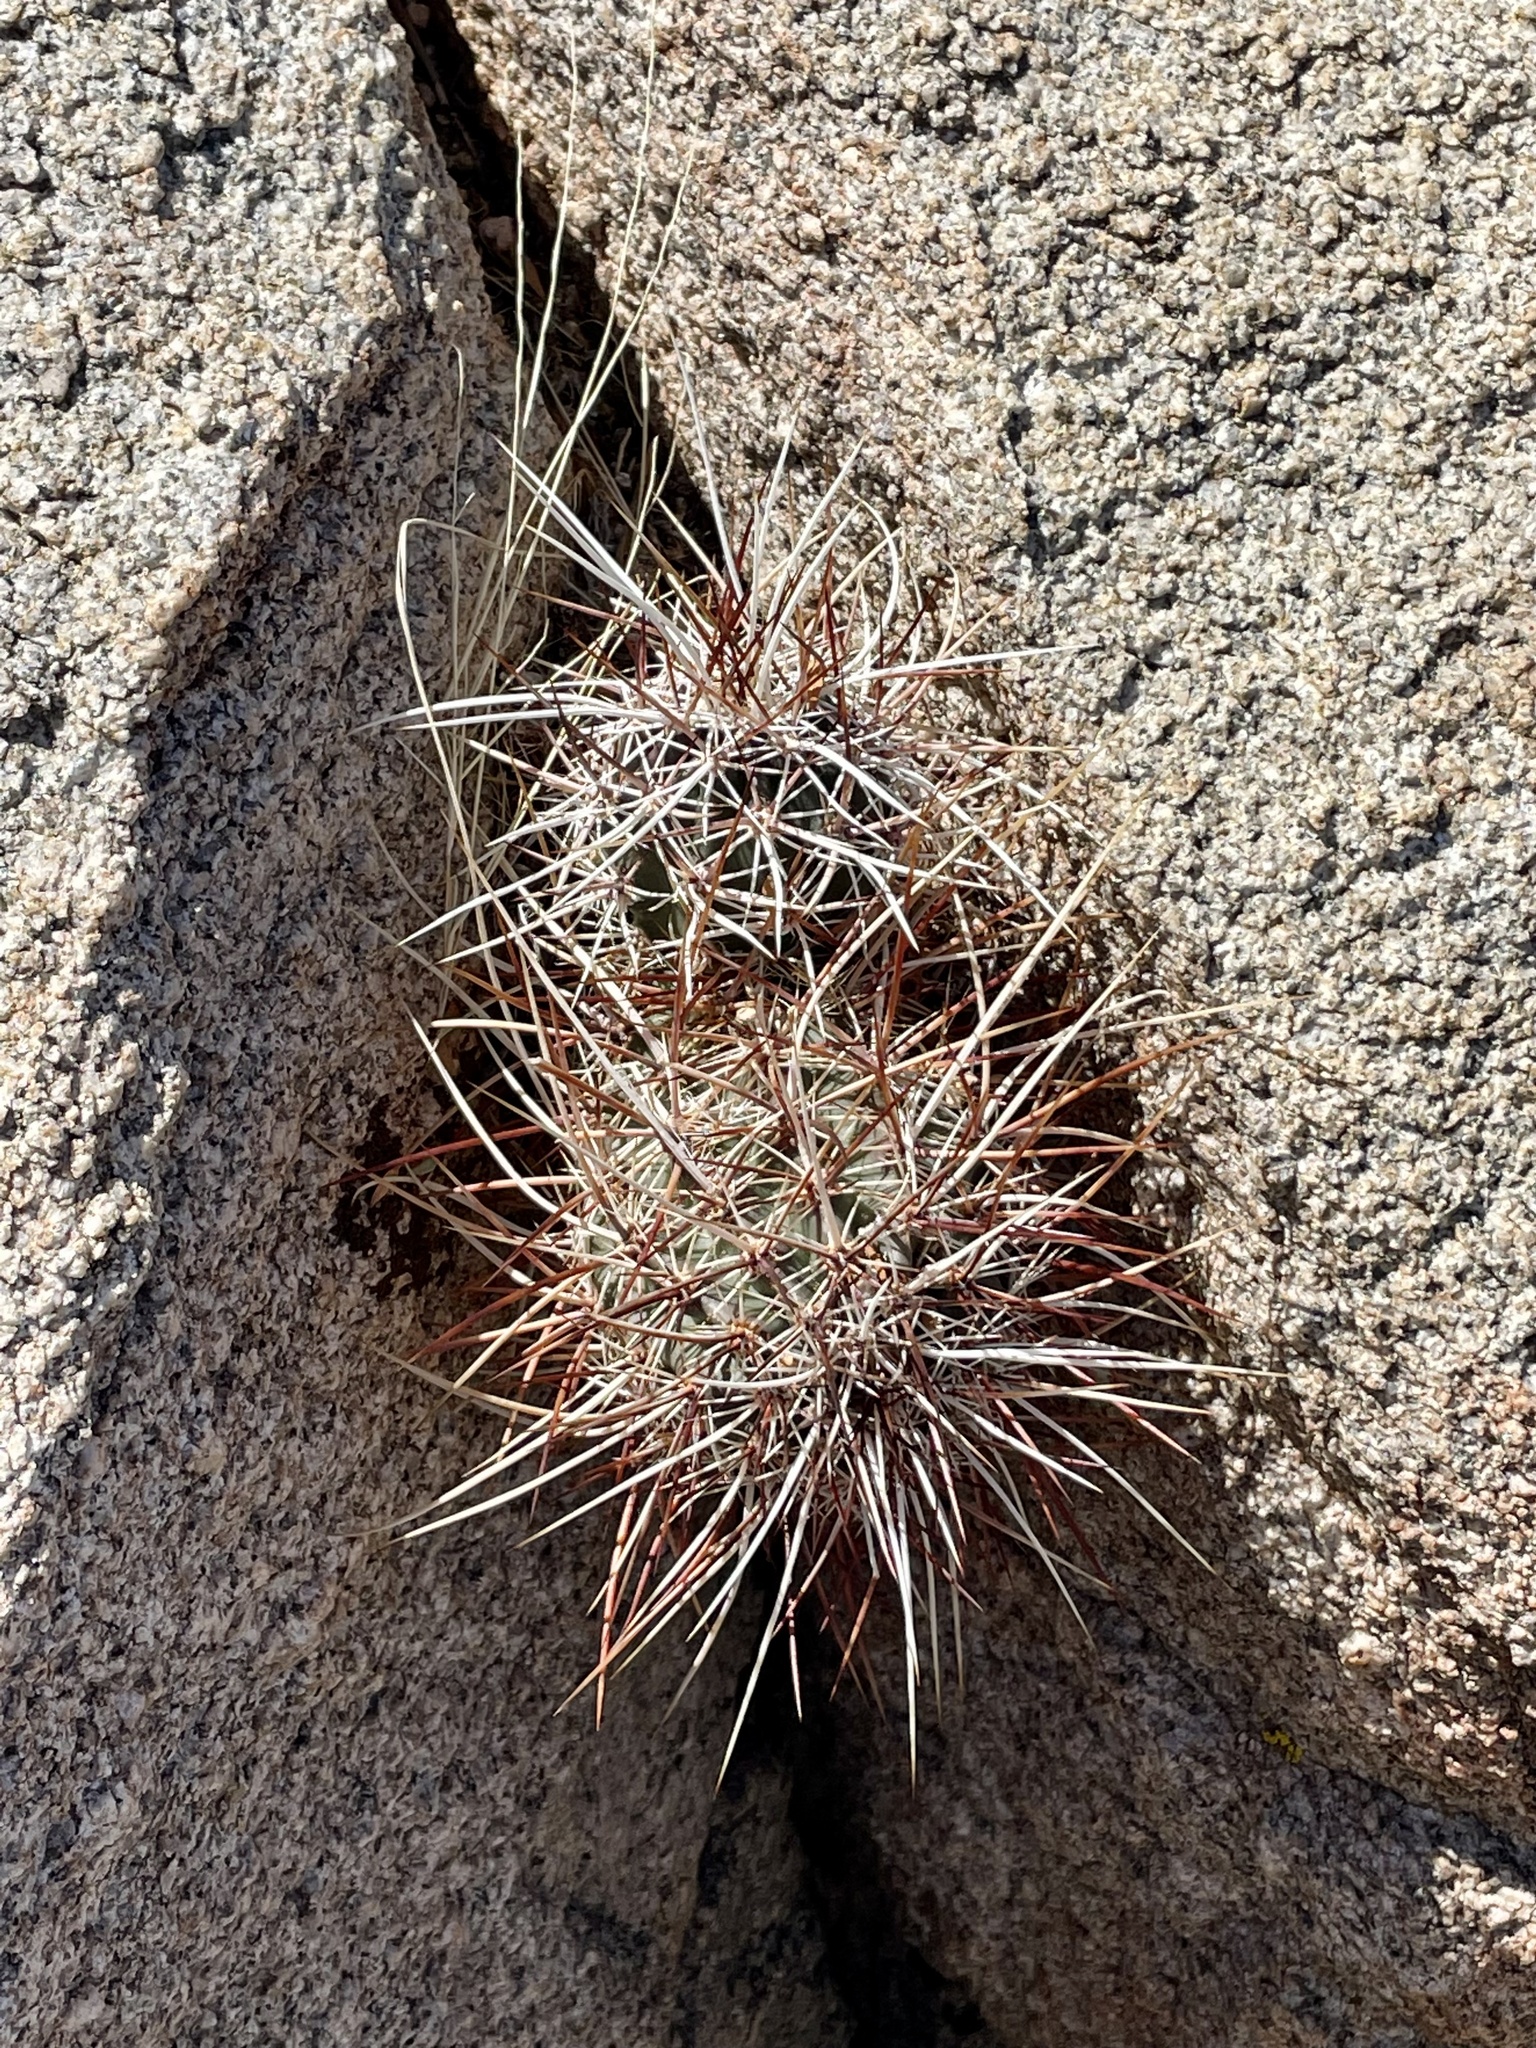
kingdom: Plantae
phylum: Tracheophyta
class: Magnoliopsida
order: Caryophyllales
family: Cactaceae
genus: Echinocereus
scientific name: Echinocereus engelmannii
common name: Engelmann's hedgehog cactus
